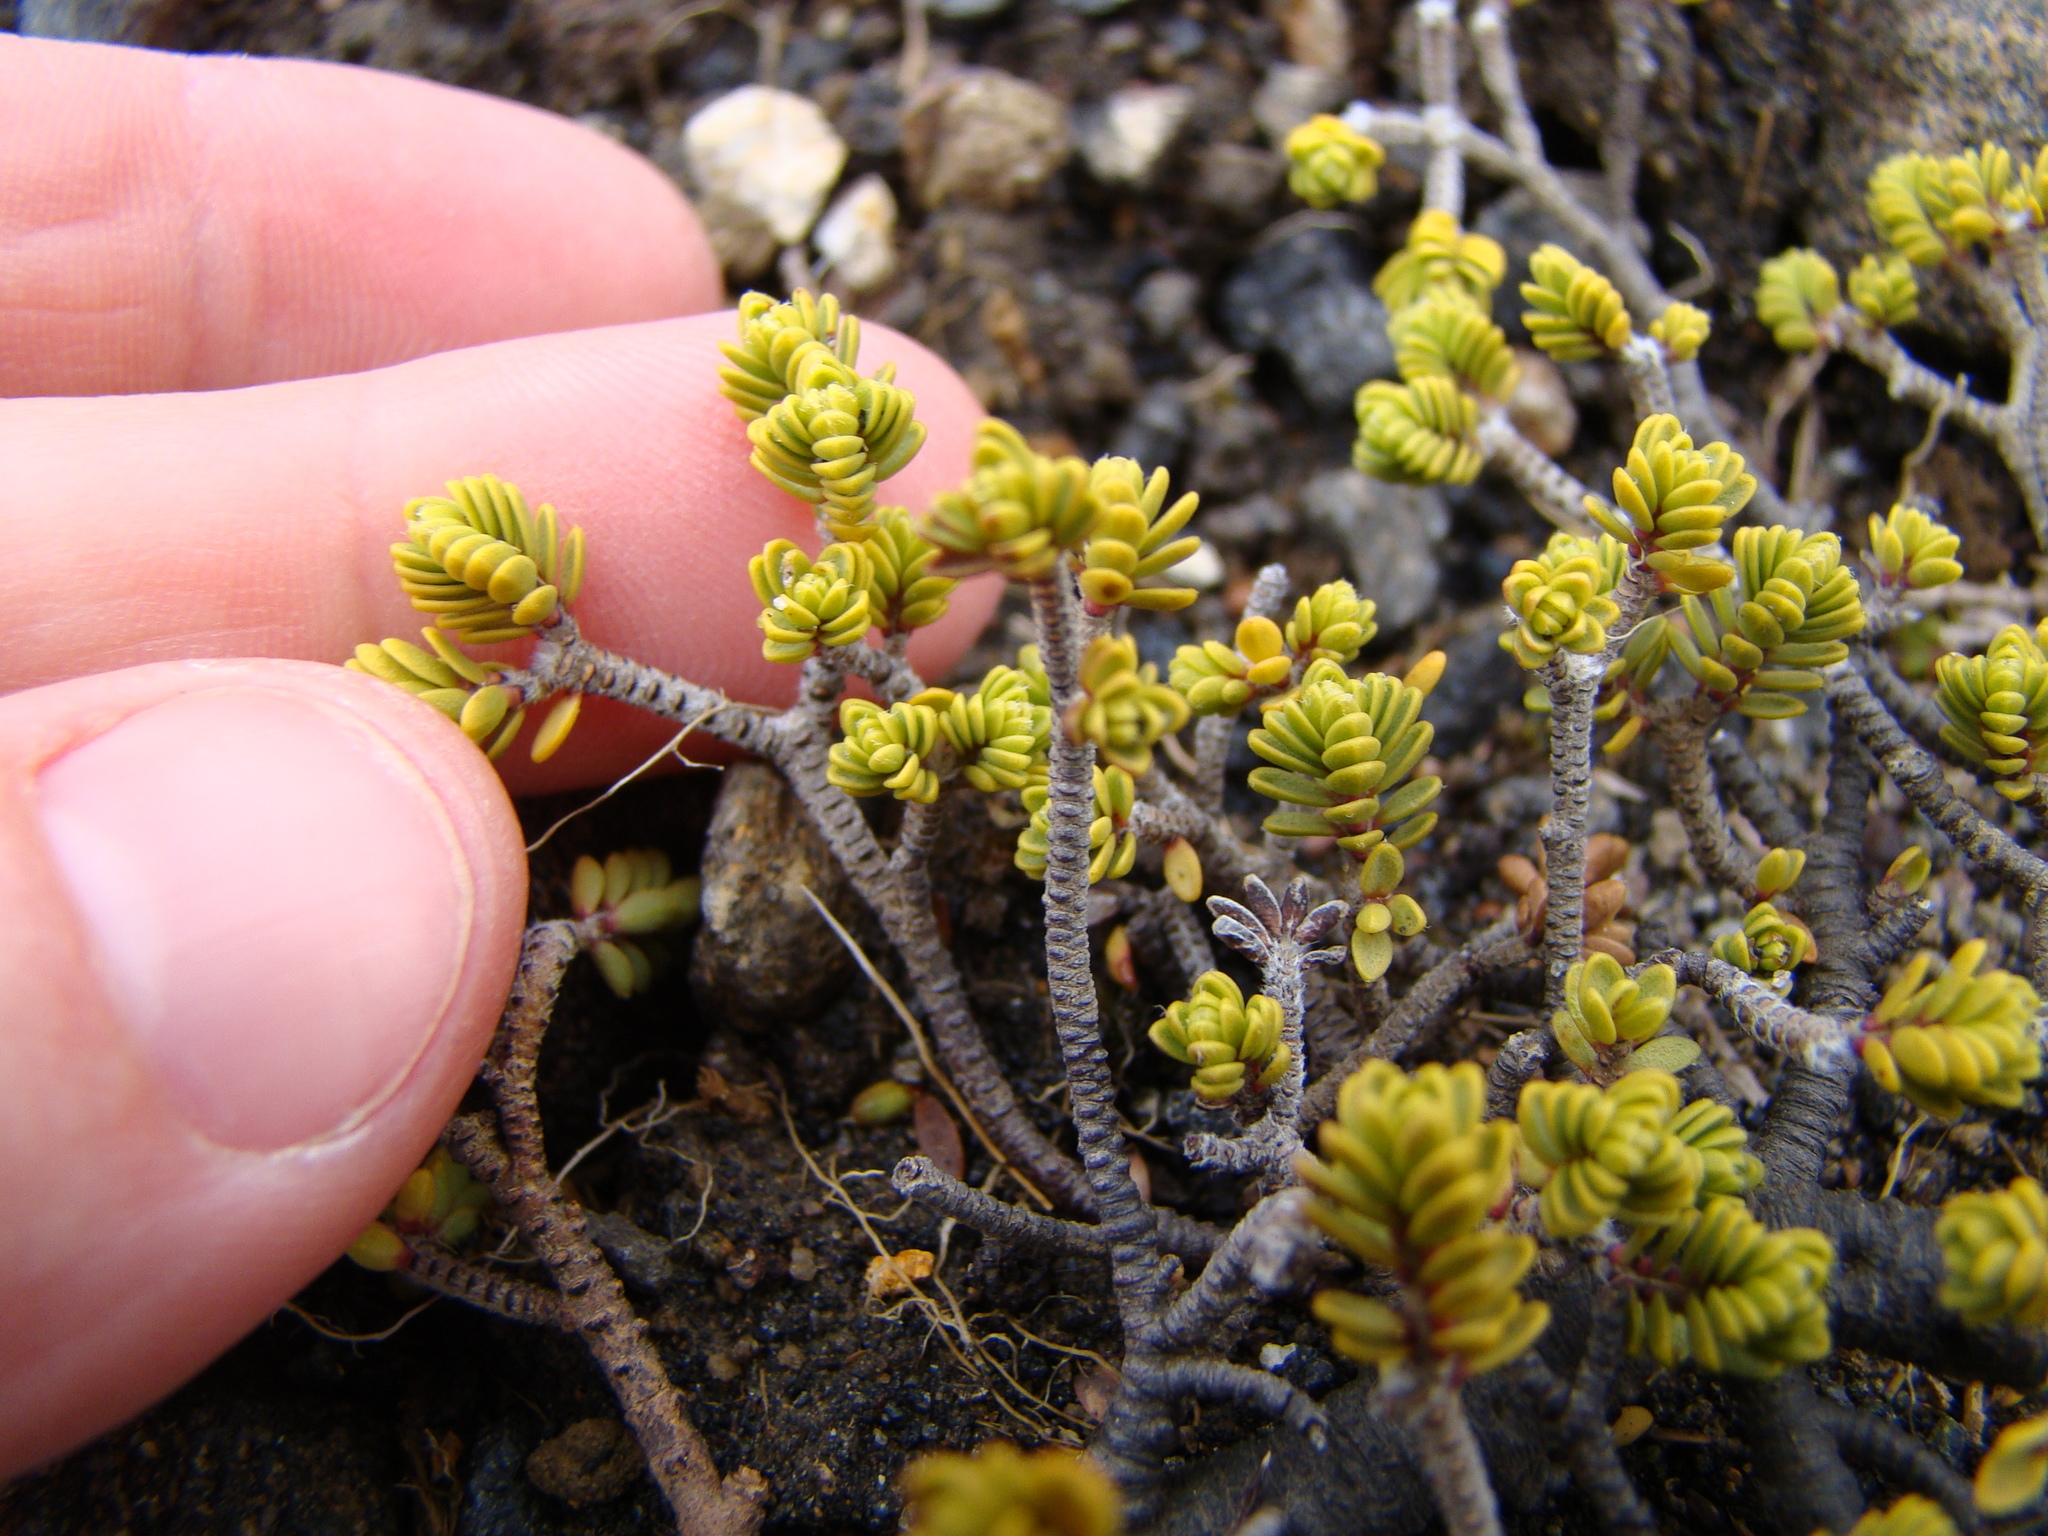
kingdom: Plantae
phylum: Tracheophyta
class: Magnoliopsida
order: Malvales
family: Thymelaeaceae
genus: Pimelea
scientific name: Pimelea microphylla
